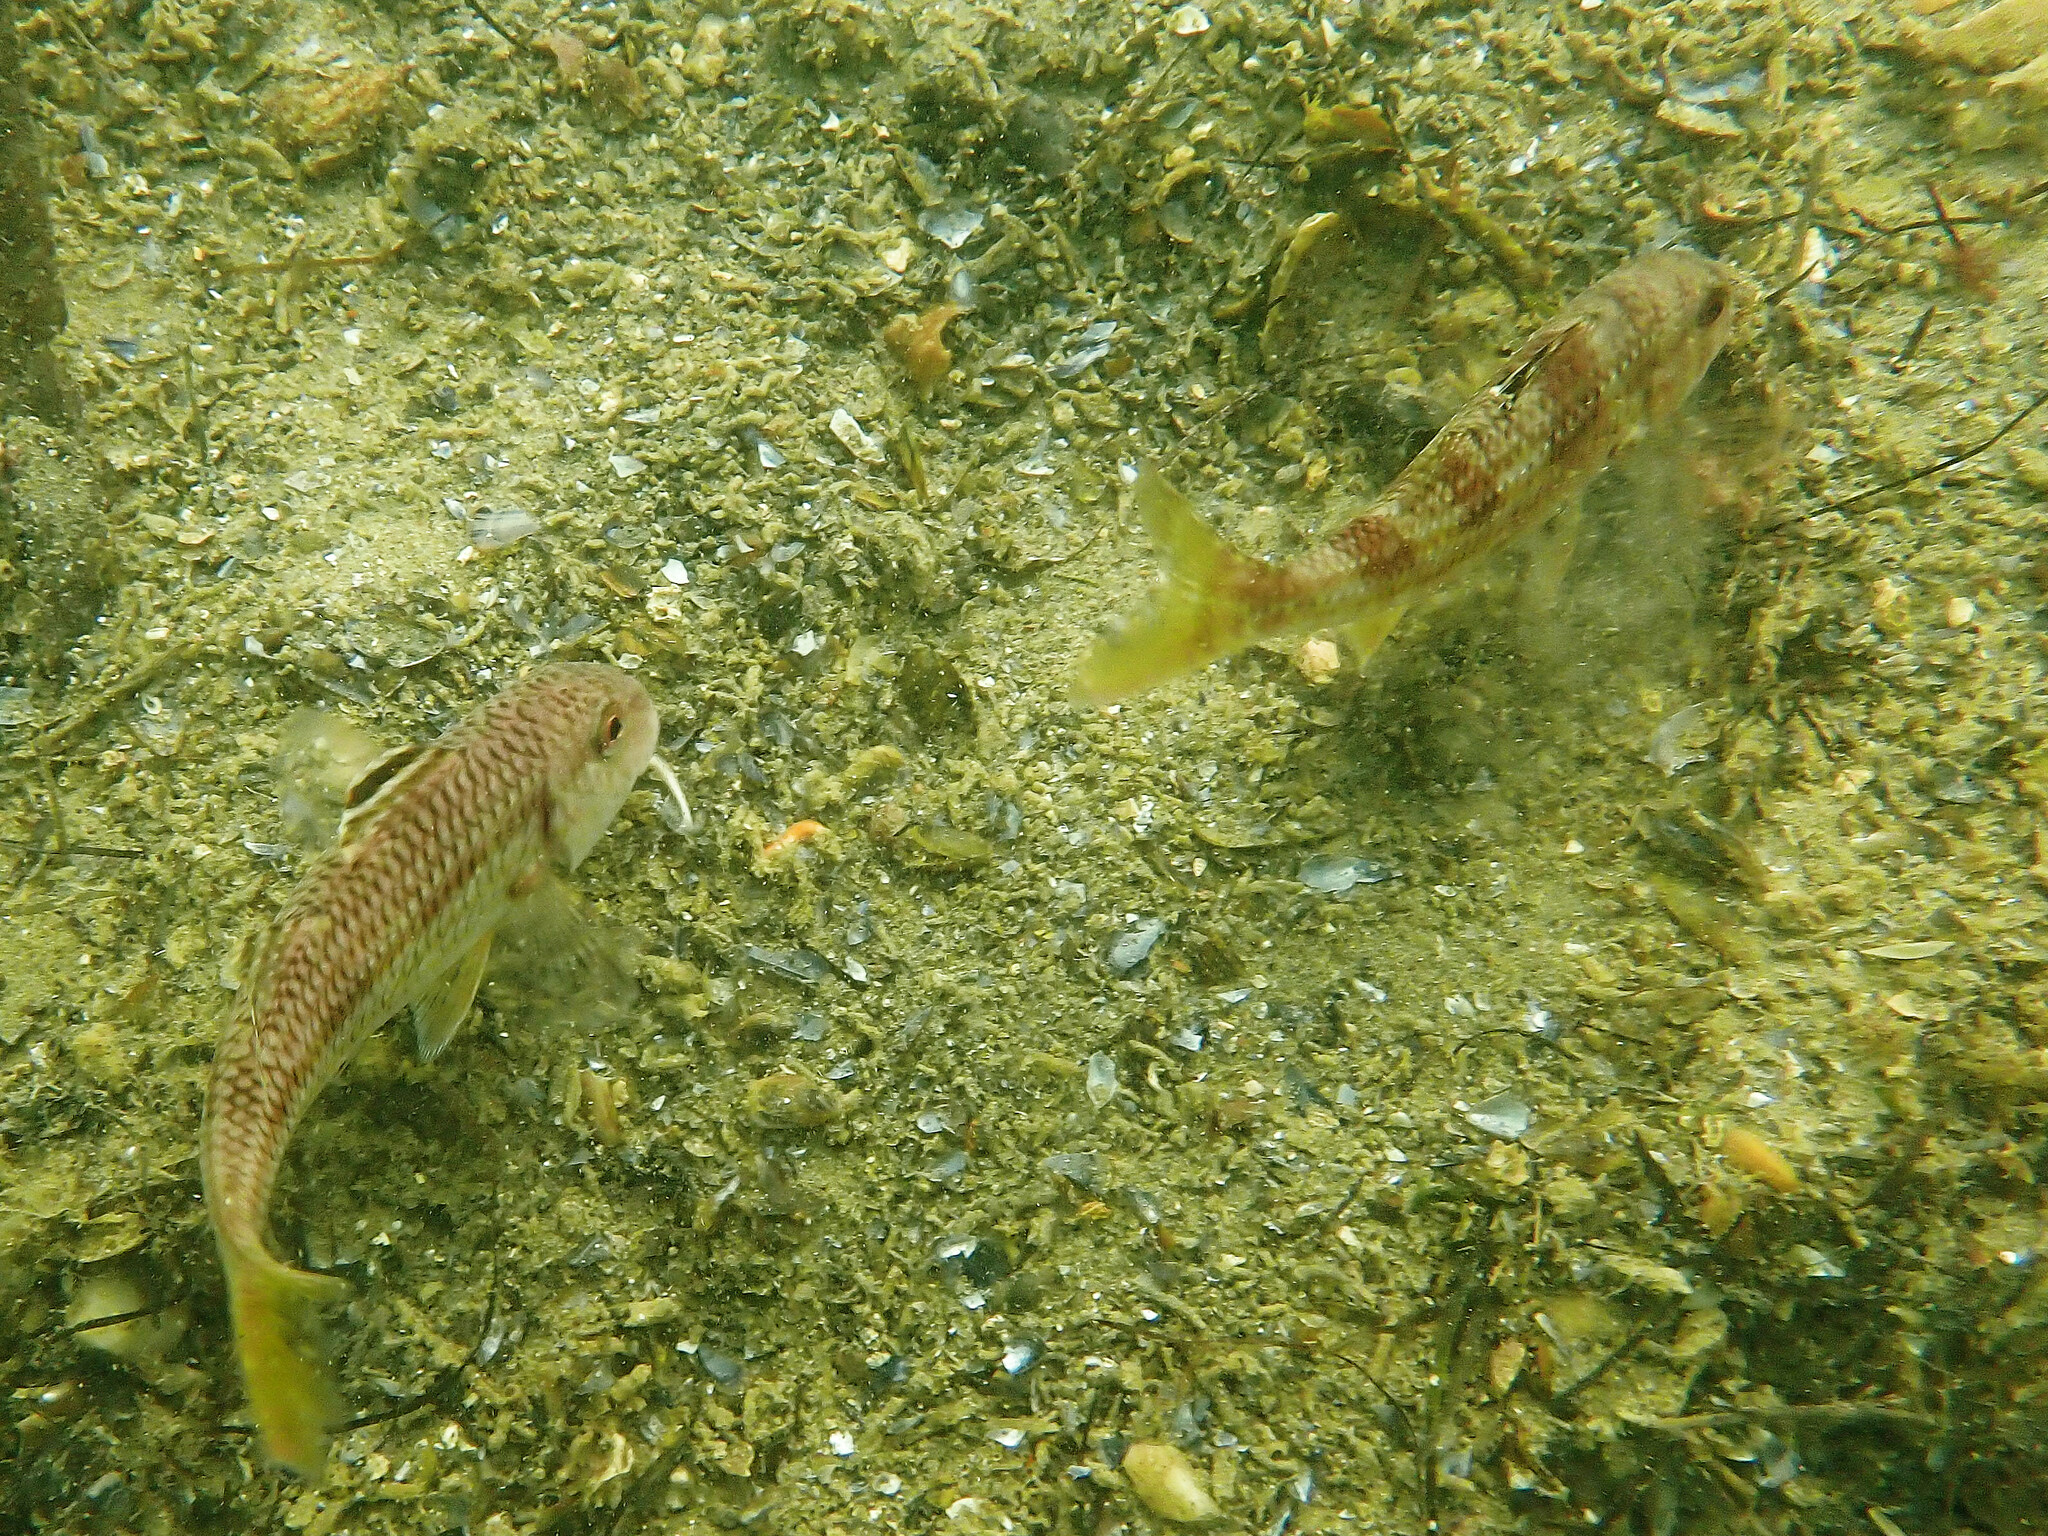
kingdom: Animalia
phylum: Chordata
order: Perciformes
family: Mullidae
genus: Mullus
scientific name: Mullus surmuletus
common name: Red mullet
